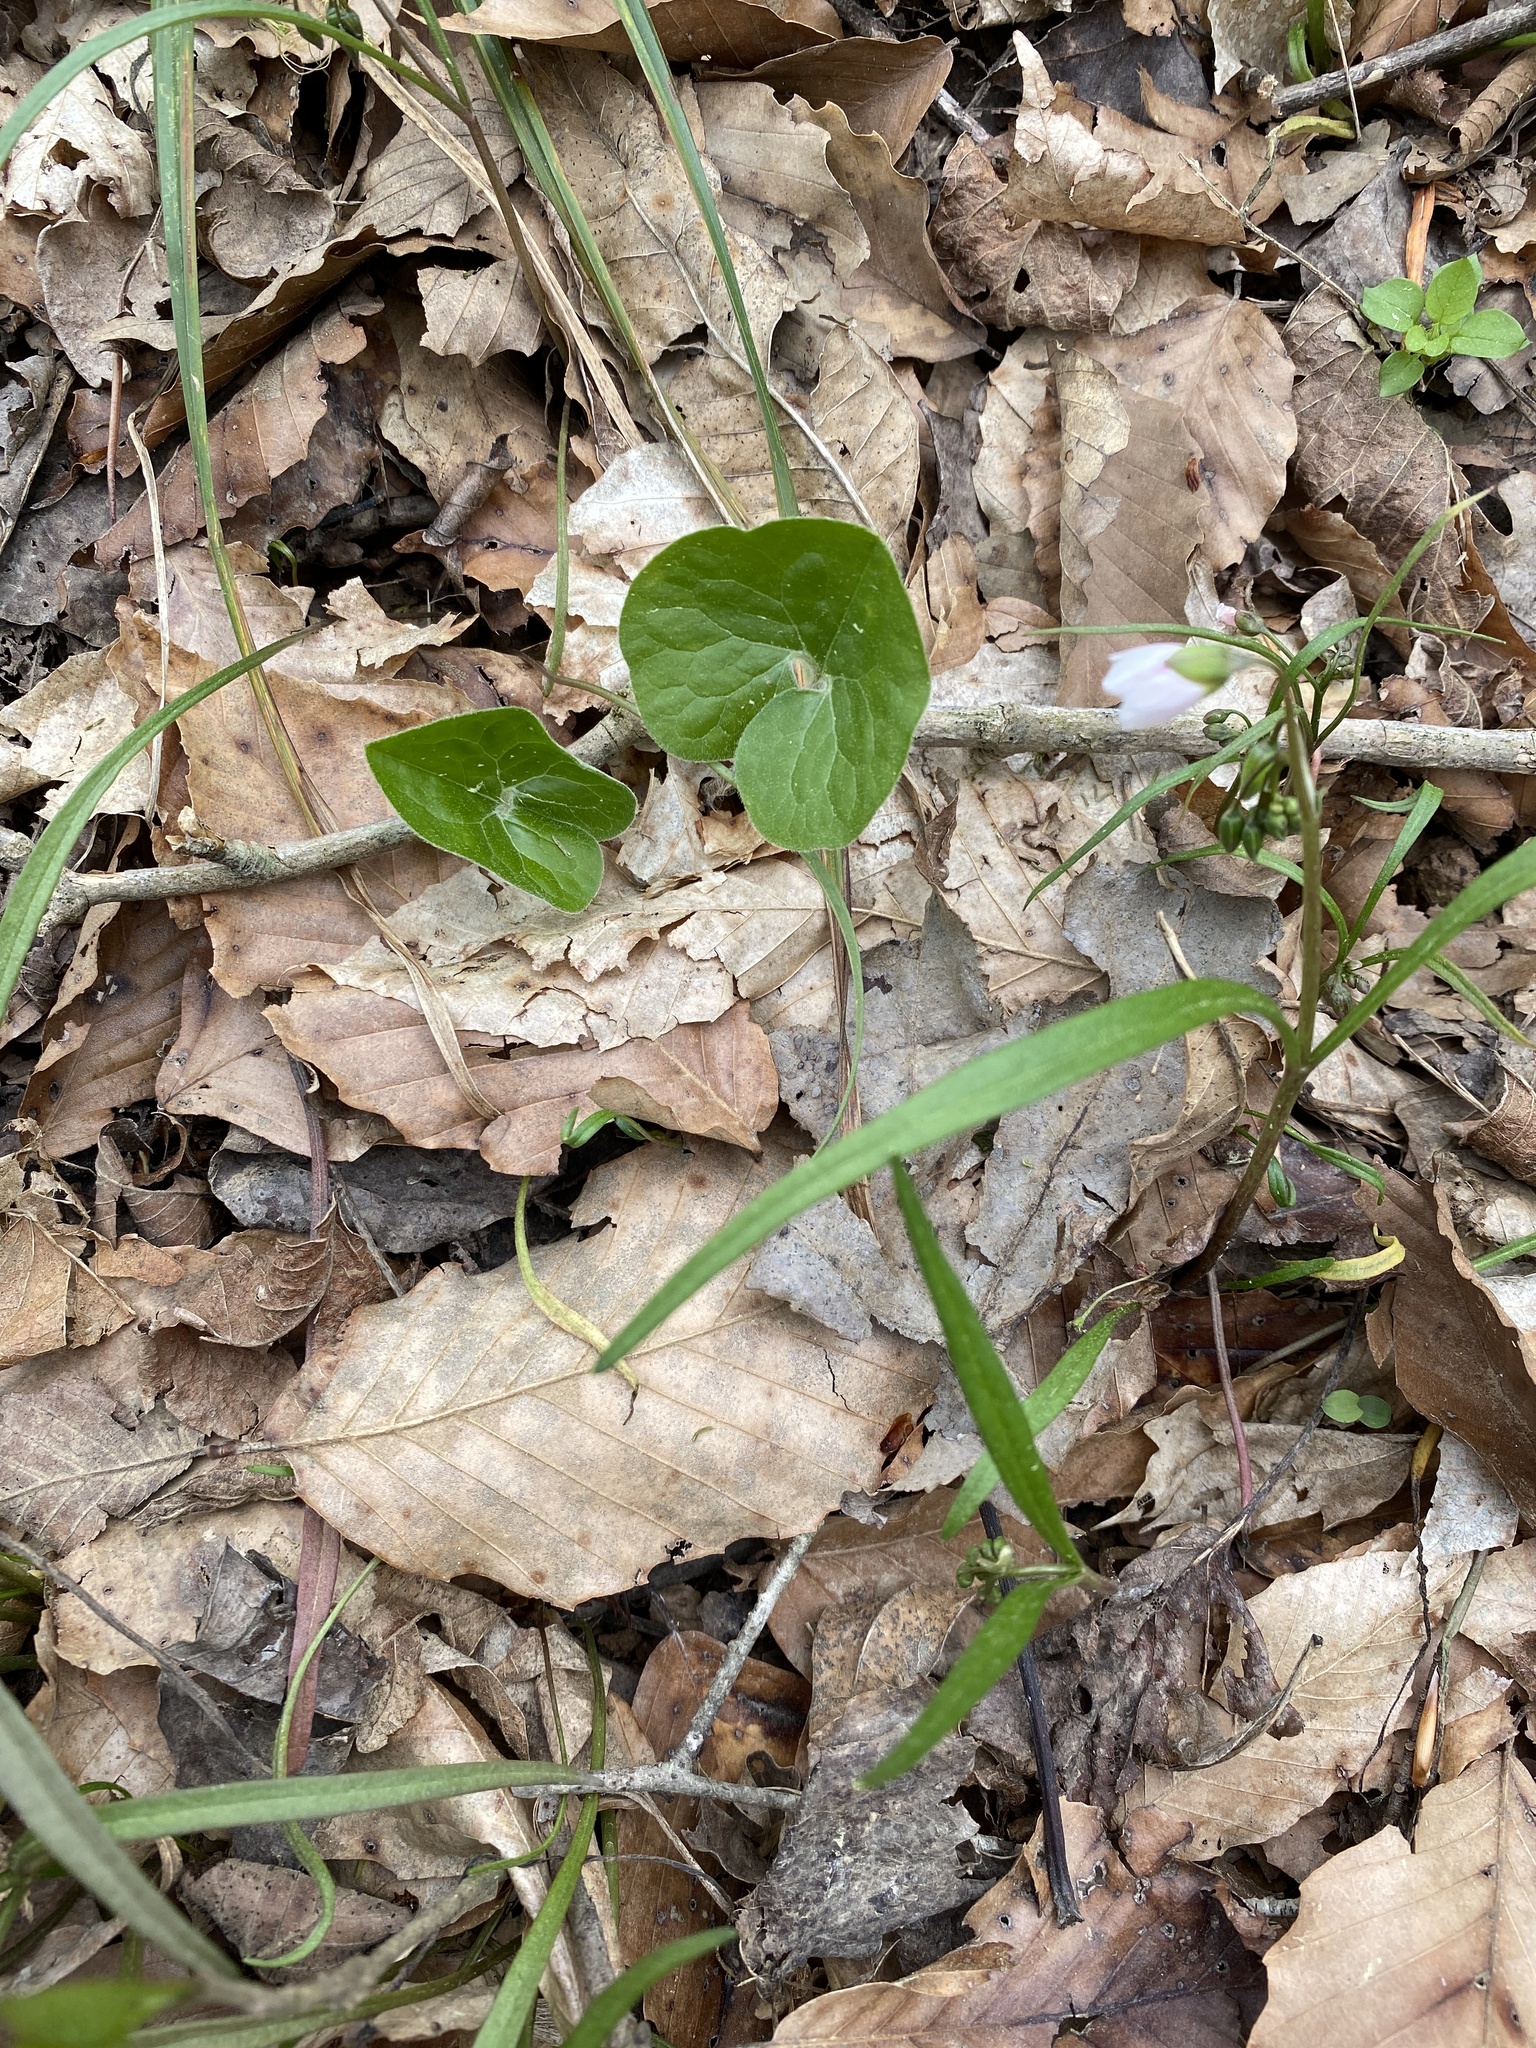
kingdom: Plantae
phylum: Tracheophyta
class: Magnoliopsida
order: Piperales
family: Aristolochiaceae
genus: Asarum
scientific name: Asarum canadense
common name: Wild ginger
